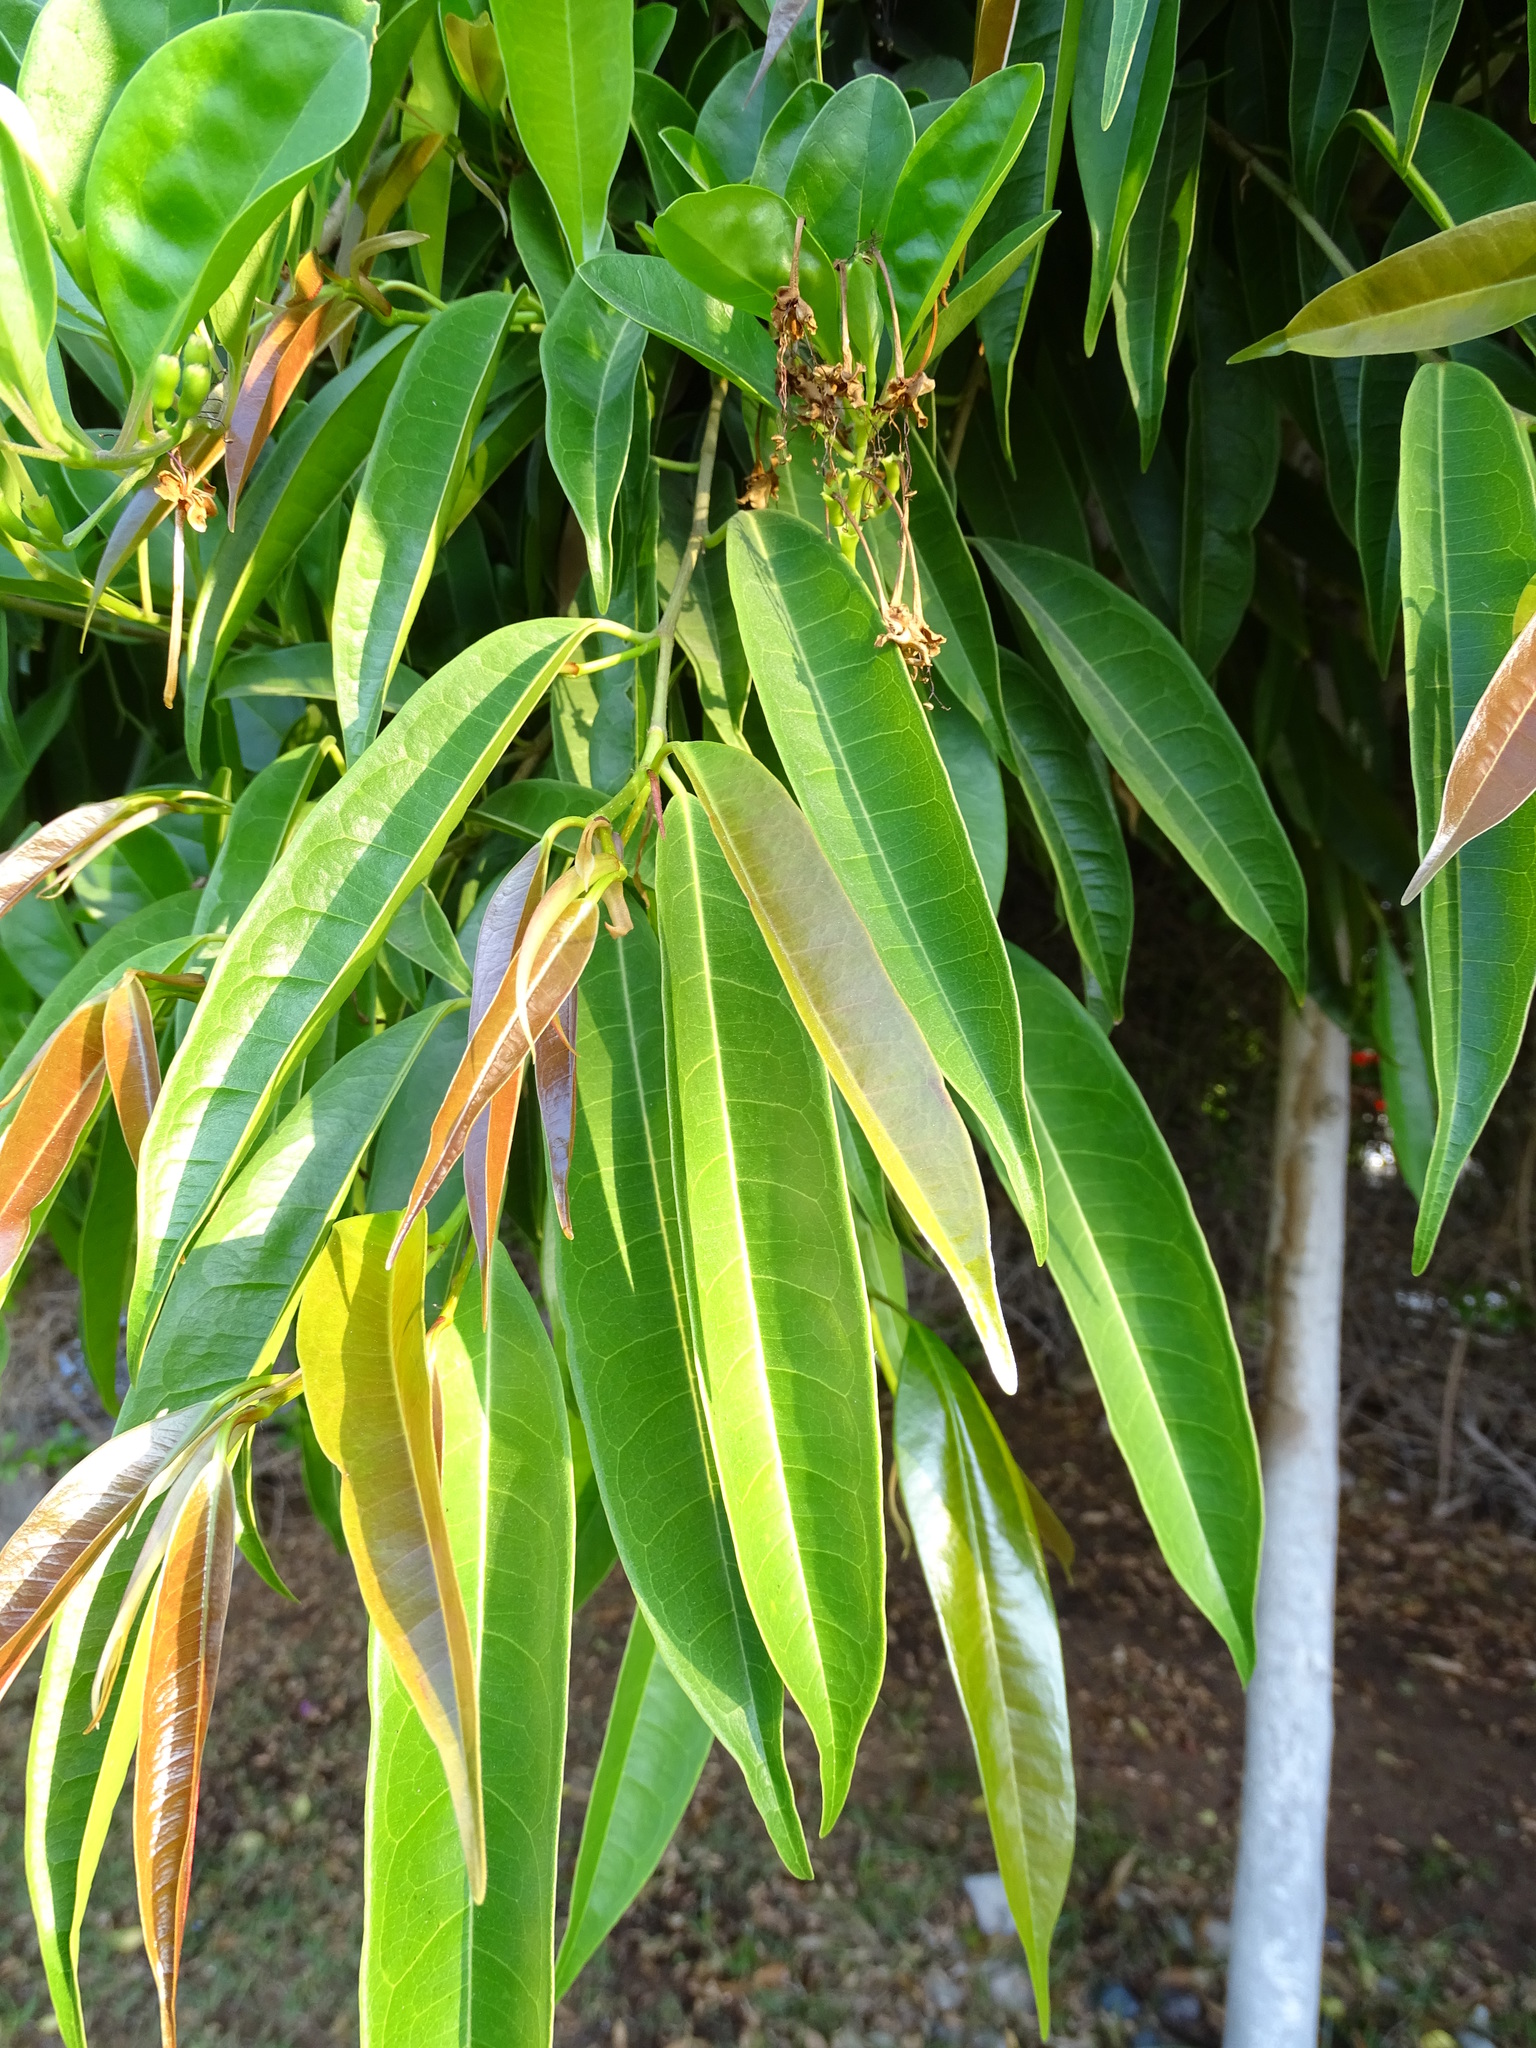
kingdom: Plantae
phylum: Tracheophyta
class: Magnoliopsida
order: Lamiales
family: Lamiaceae
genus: Volkameria
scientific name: Volkameria inermis
